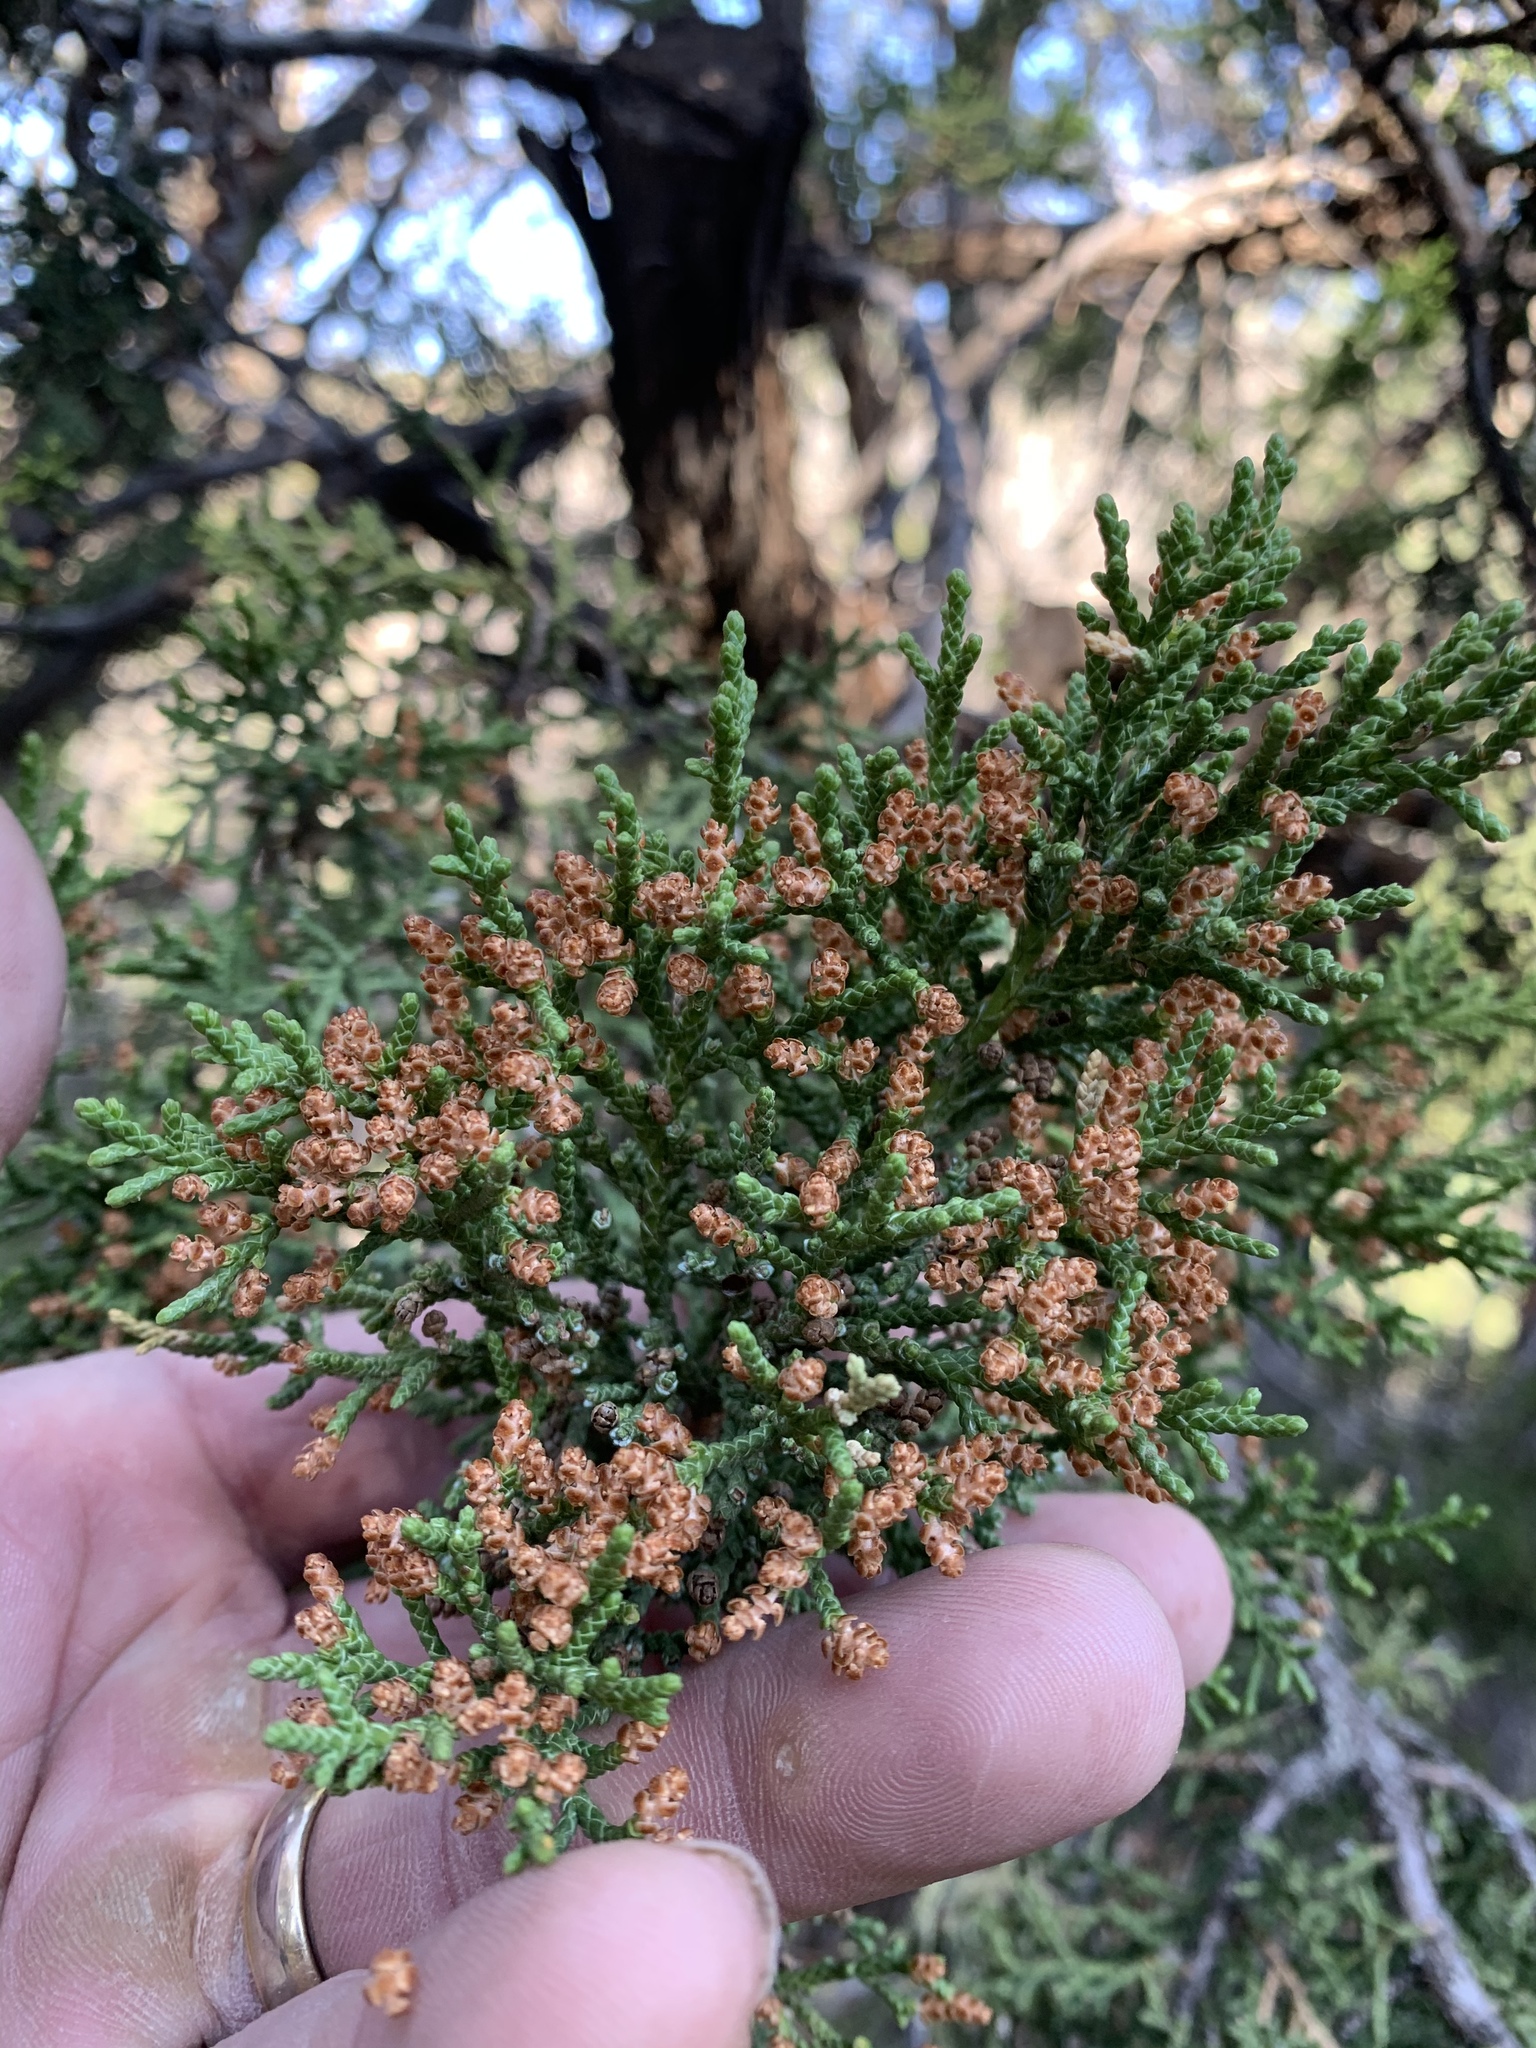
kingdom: Plantae
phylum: Tracheophyta
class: Pinopsida
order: Pinales
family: Cupressaceae
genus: Juniperus
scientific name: Juniperus monosperma
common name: One-seed juniper
